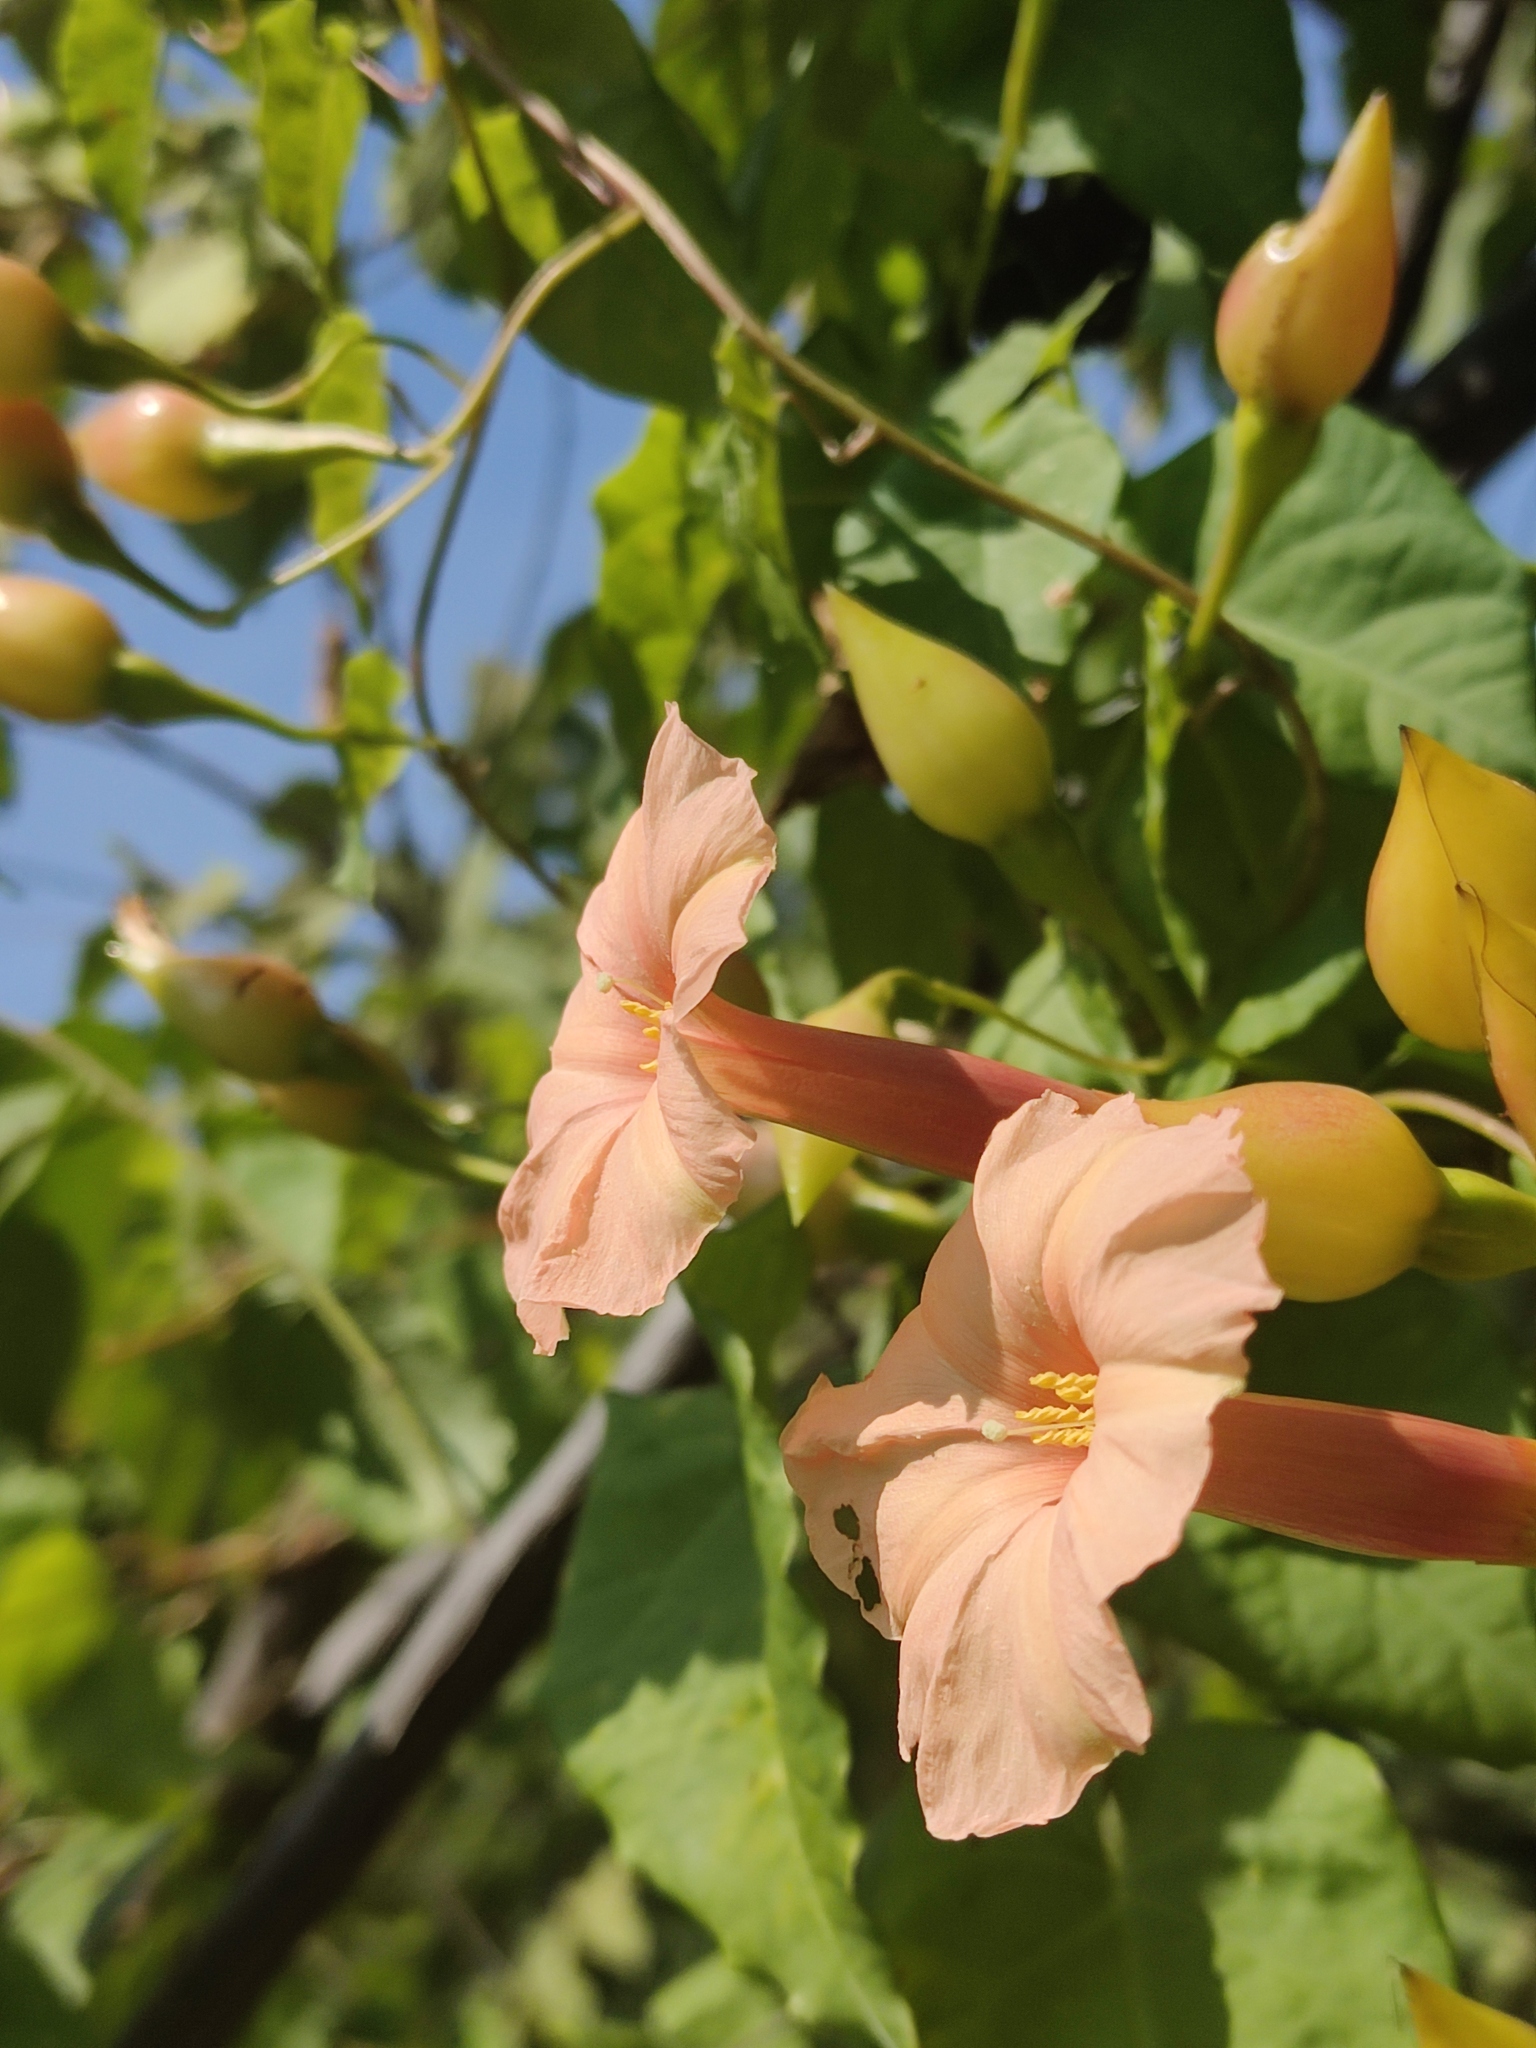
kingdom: Plantae
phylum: Tracheophyta
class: Magnoliopsida
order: Solanales
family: Convolvulaceae
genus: Operculina
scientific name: Operculina pteripes
